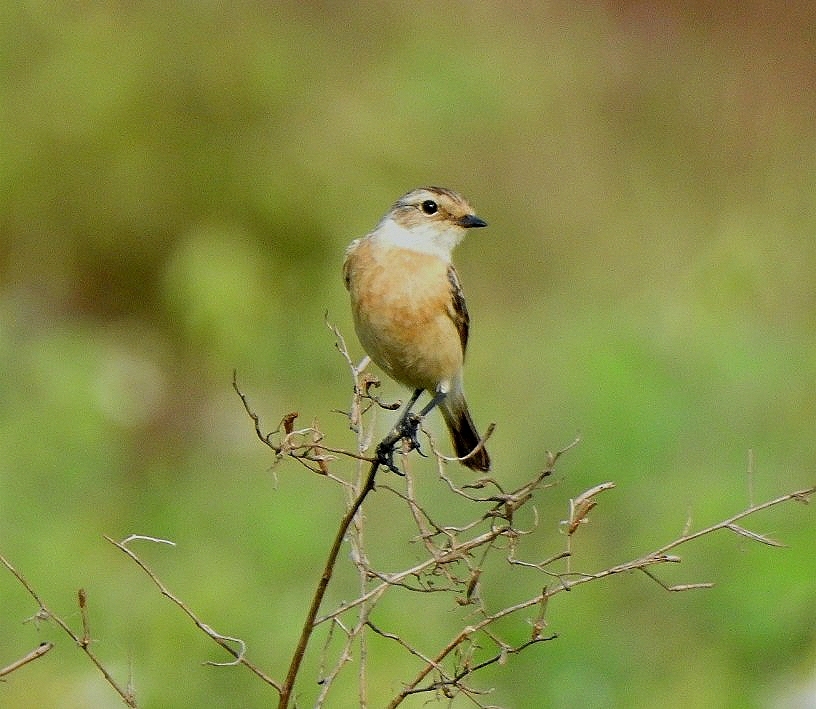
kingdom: Animalia
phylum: Chordata
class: Aves
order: Passeriformes
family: Muscicapidae
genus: Saxicola
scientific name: Saxicola maurus
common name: Siberian stonechat
